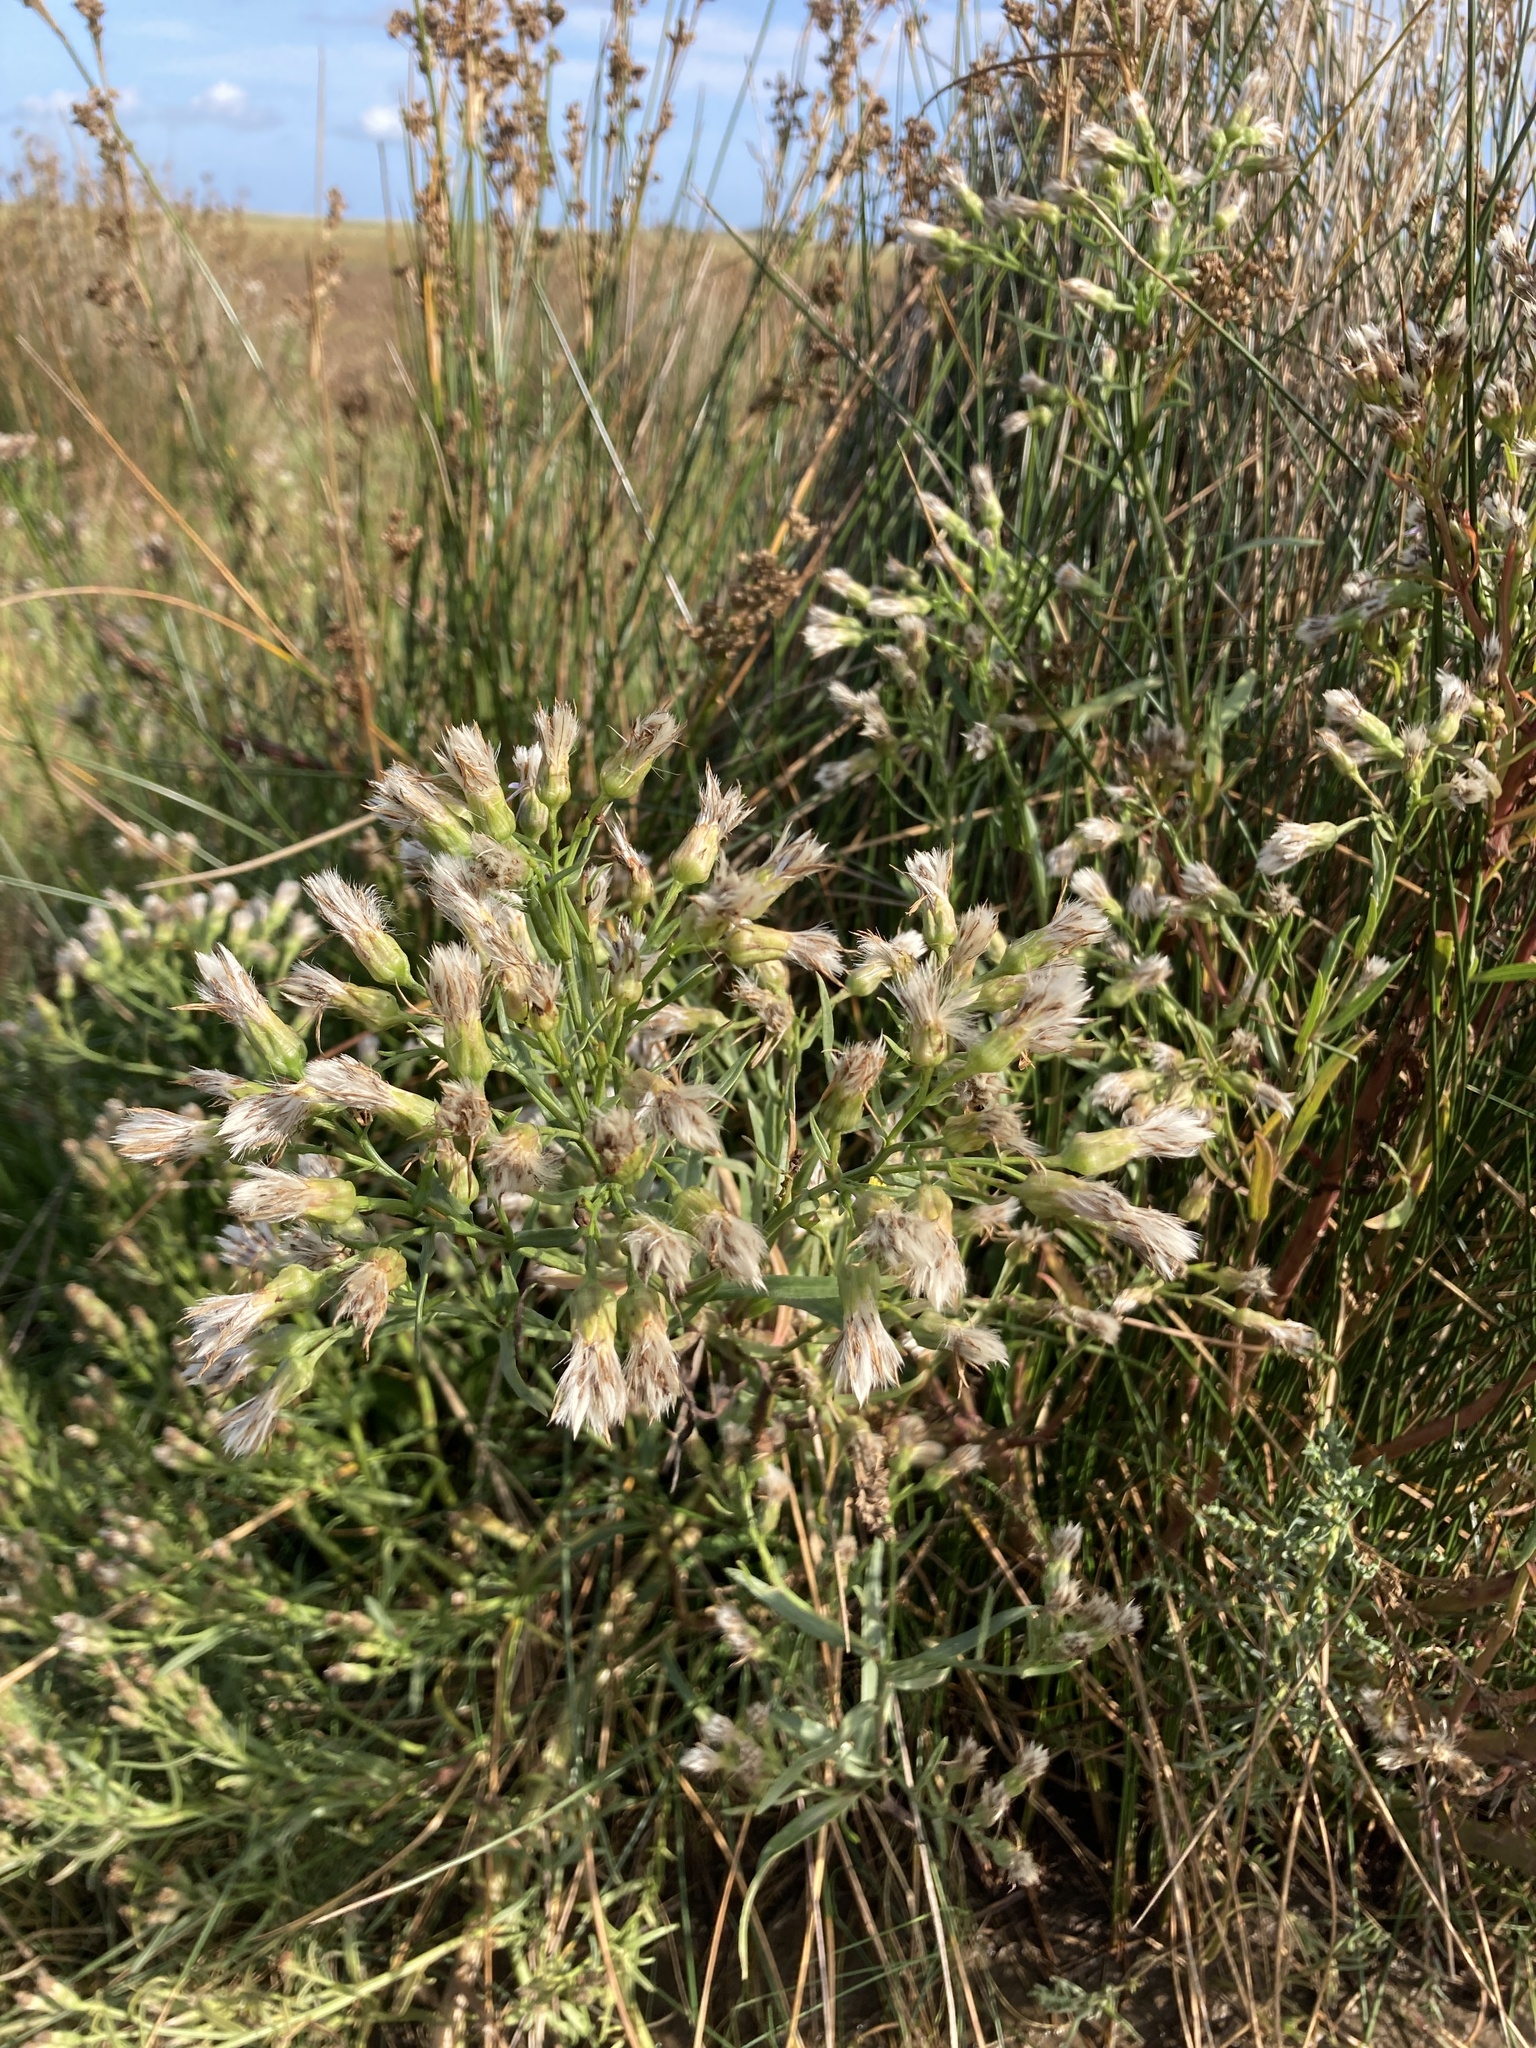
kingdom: Plantae
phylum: Tracheophyta
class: Magnoliopsida
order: Asterales
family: Asteraceae
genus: Tripolium
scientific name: Tripolium pannonicum
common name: Sea aster
